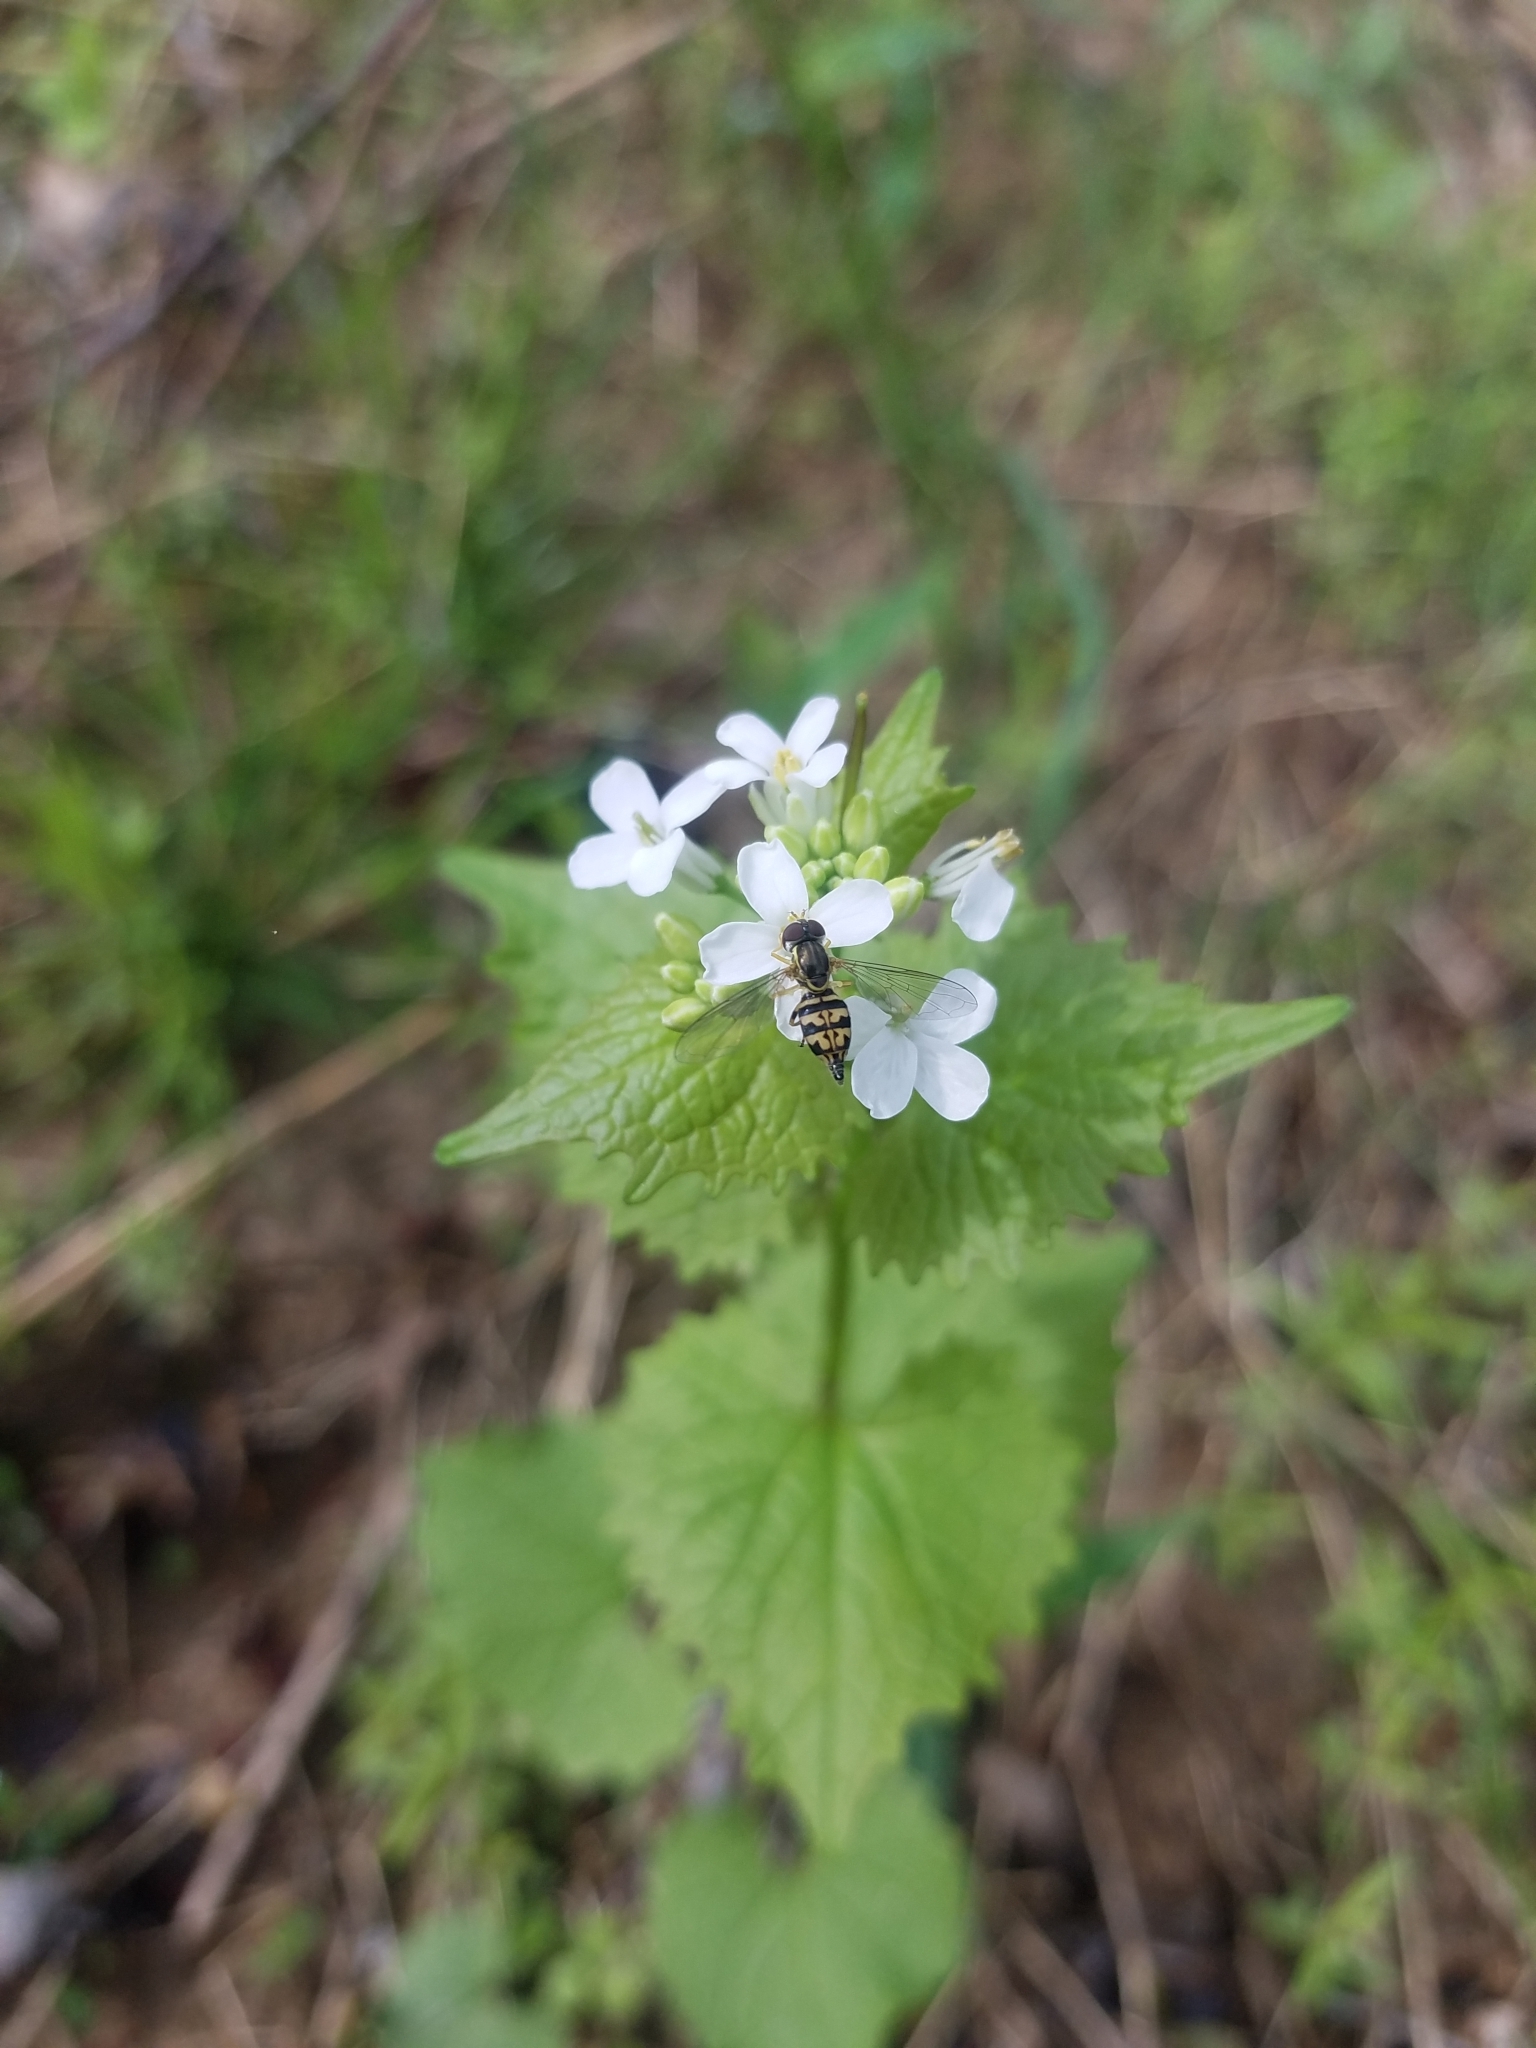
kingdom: Animalia
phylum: Arthropoda
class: Insecta
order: Diptera
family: Syrphidae
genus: Toxomerus
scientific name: Toxomerus geminatus
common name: Eastern calligrapher
